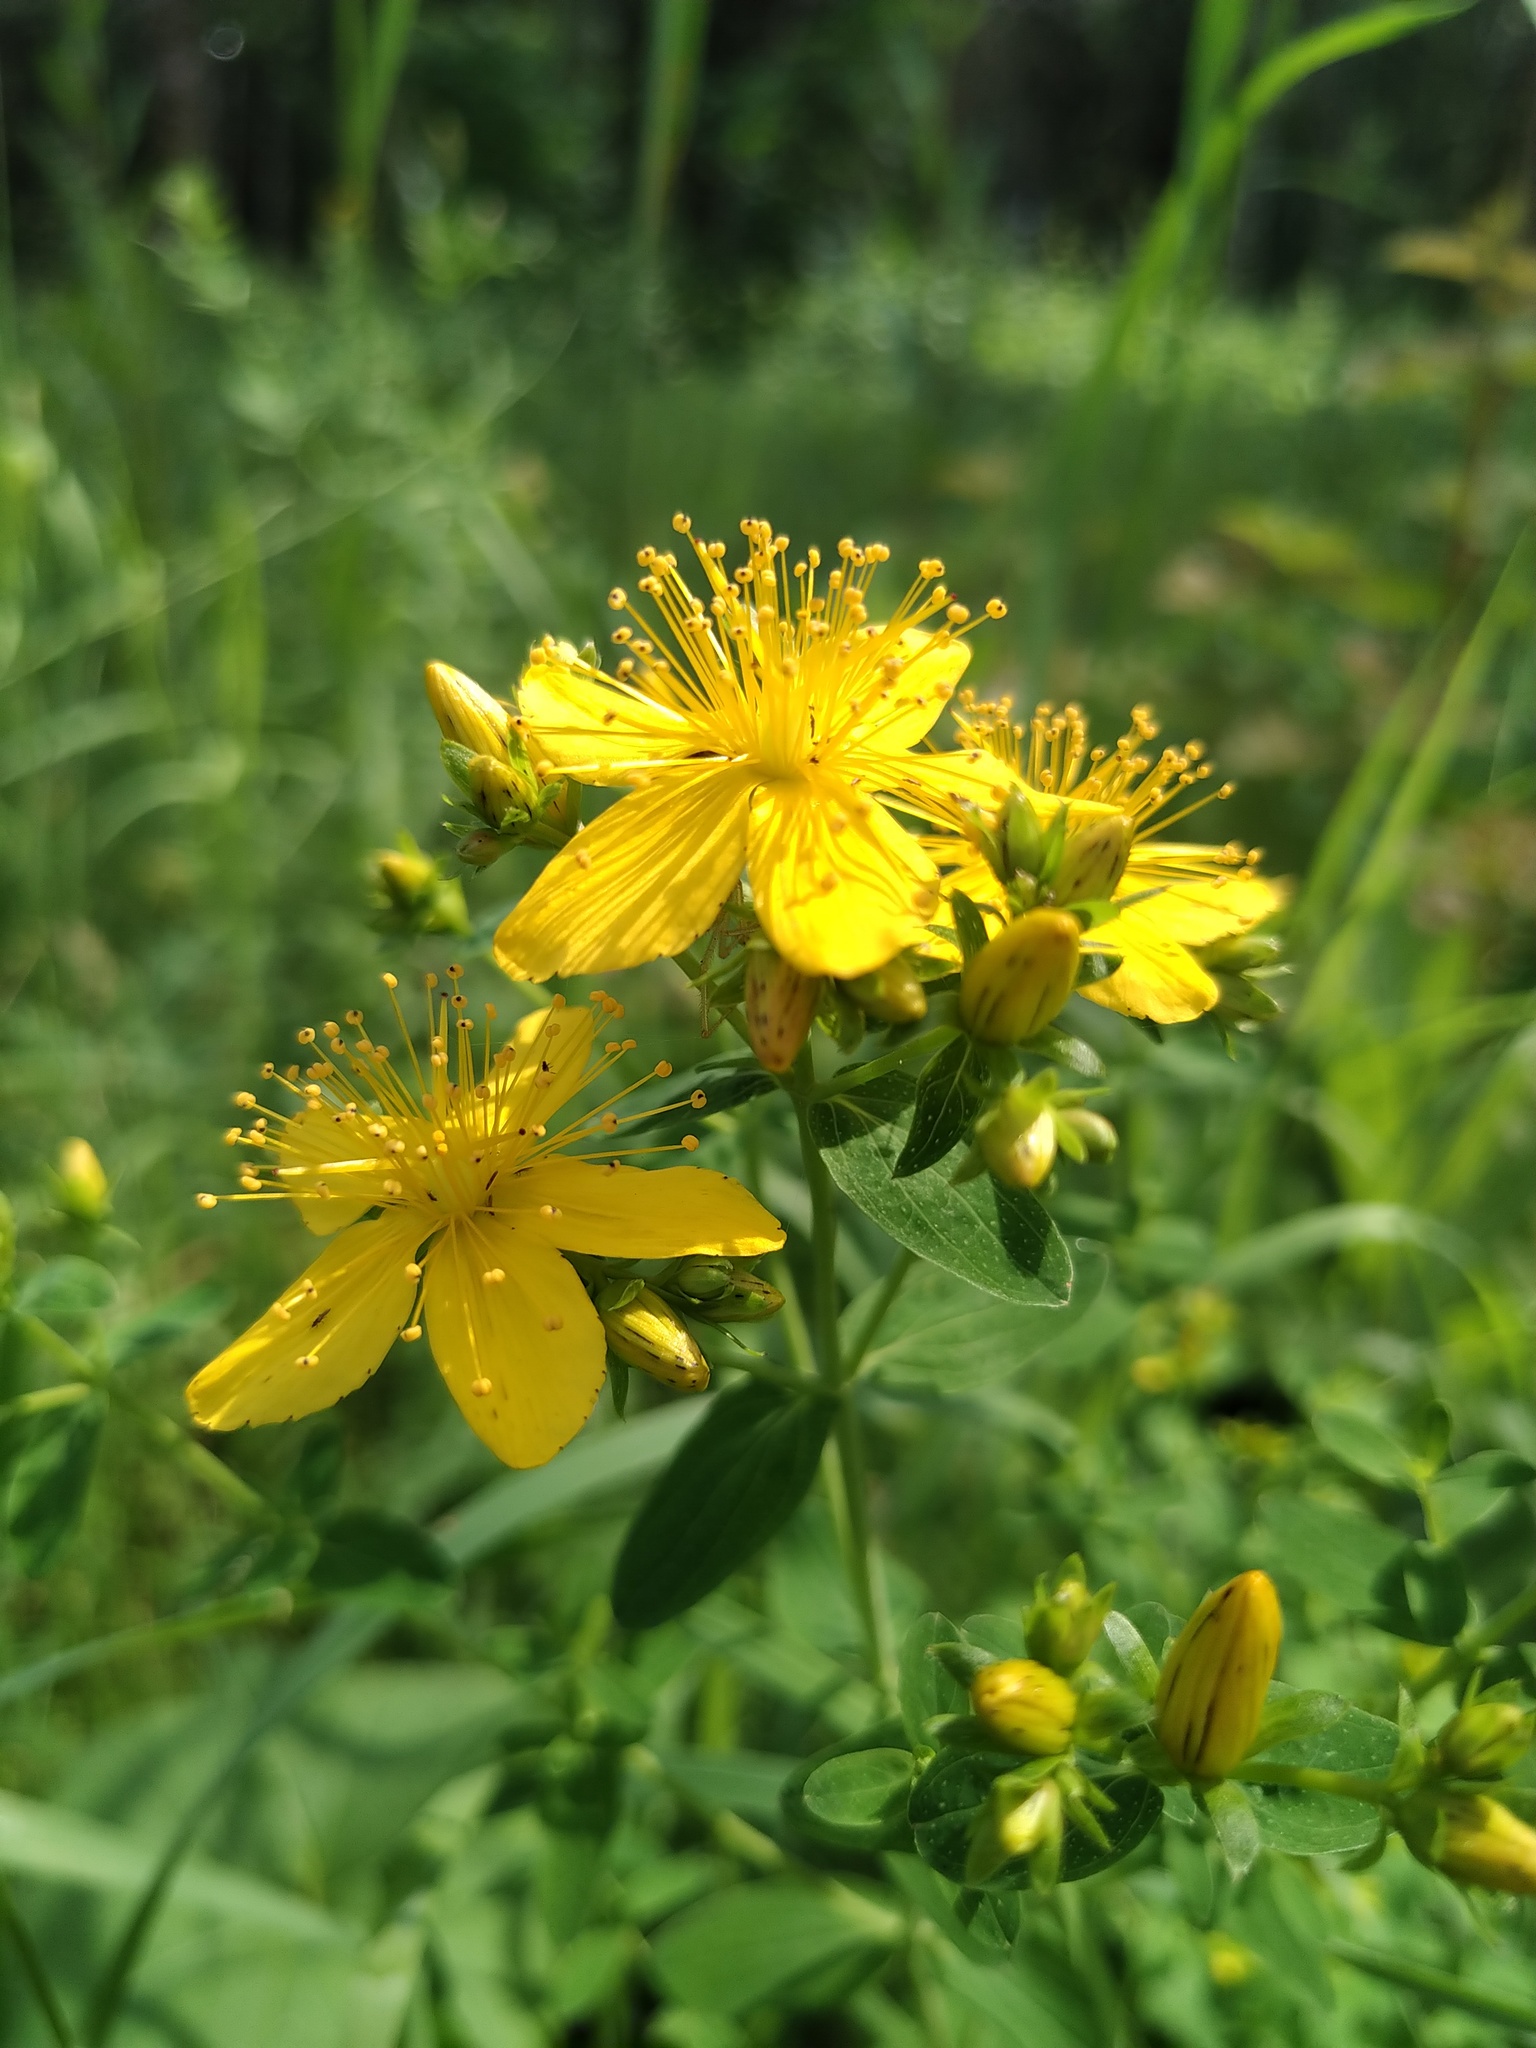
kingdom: Plantae
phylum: Tracheophyta
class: Magnoliopsida
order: Malpighiales
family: Hypericaceae
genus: Hypericum
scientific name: Hypericum perforatum
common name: Common st. johnswort
